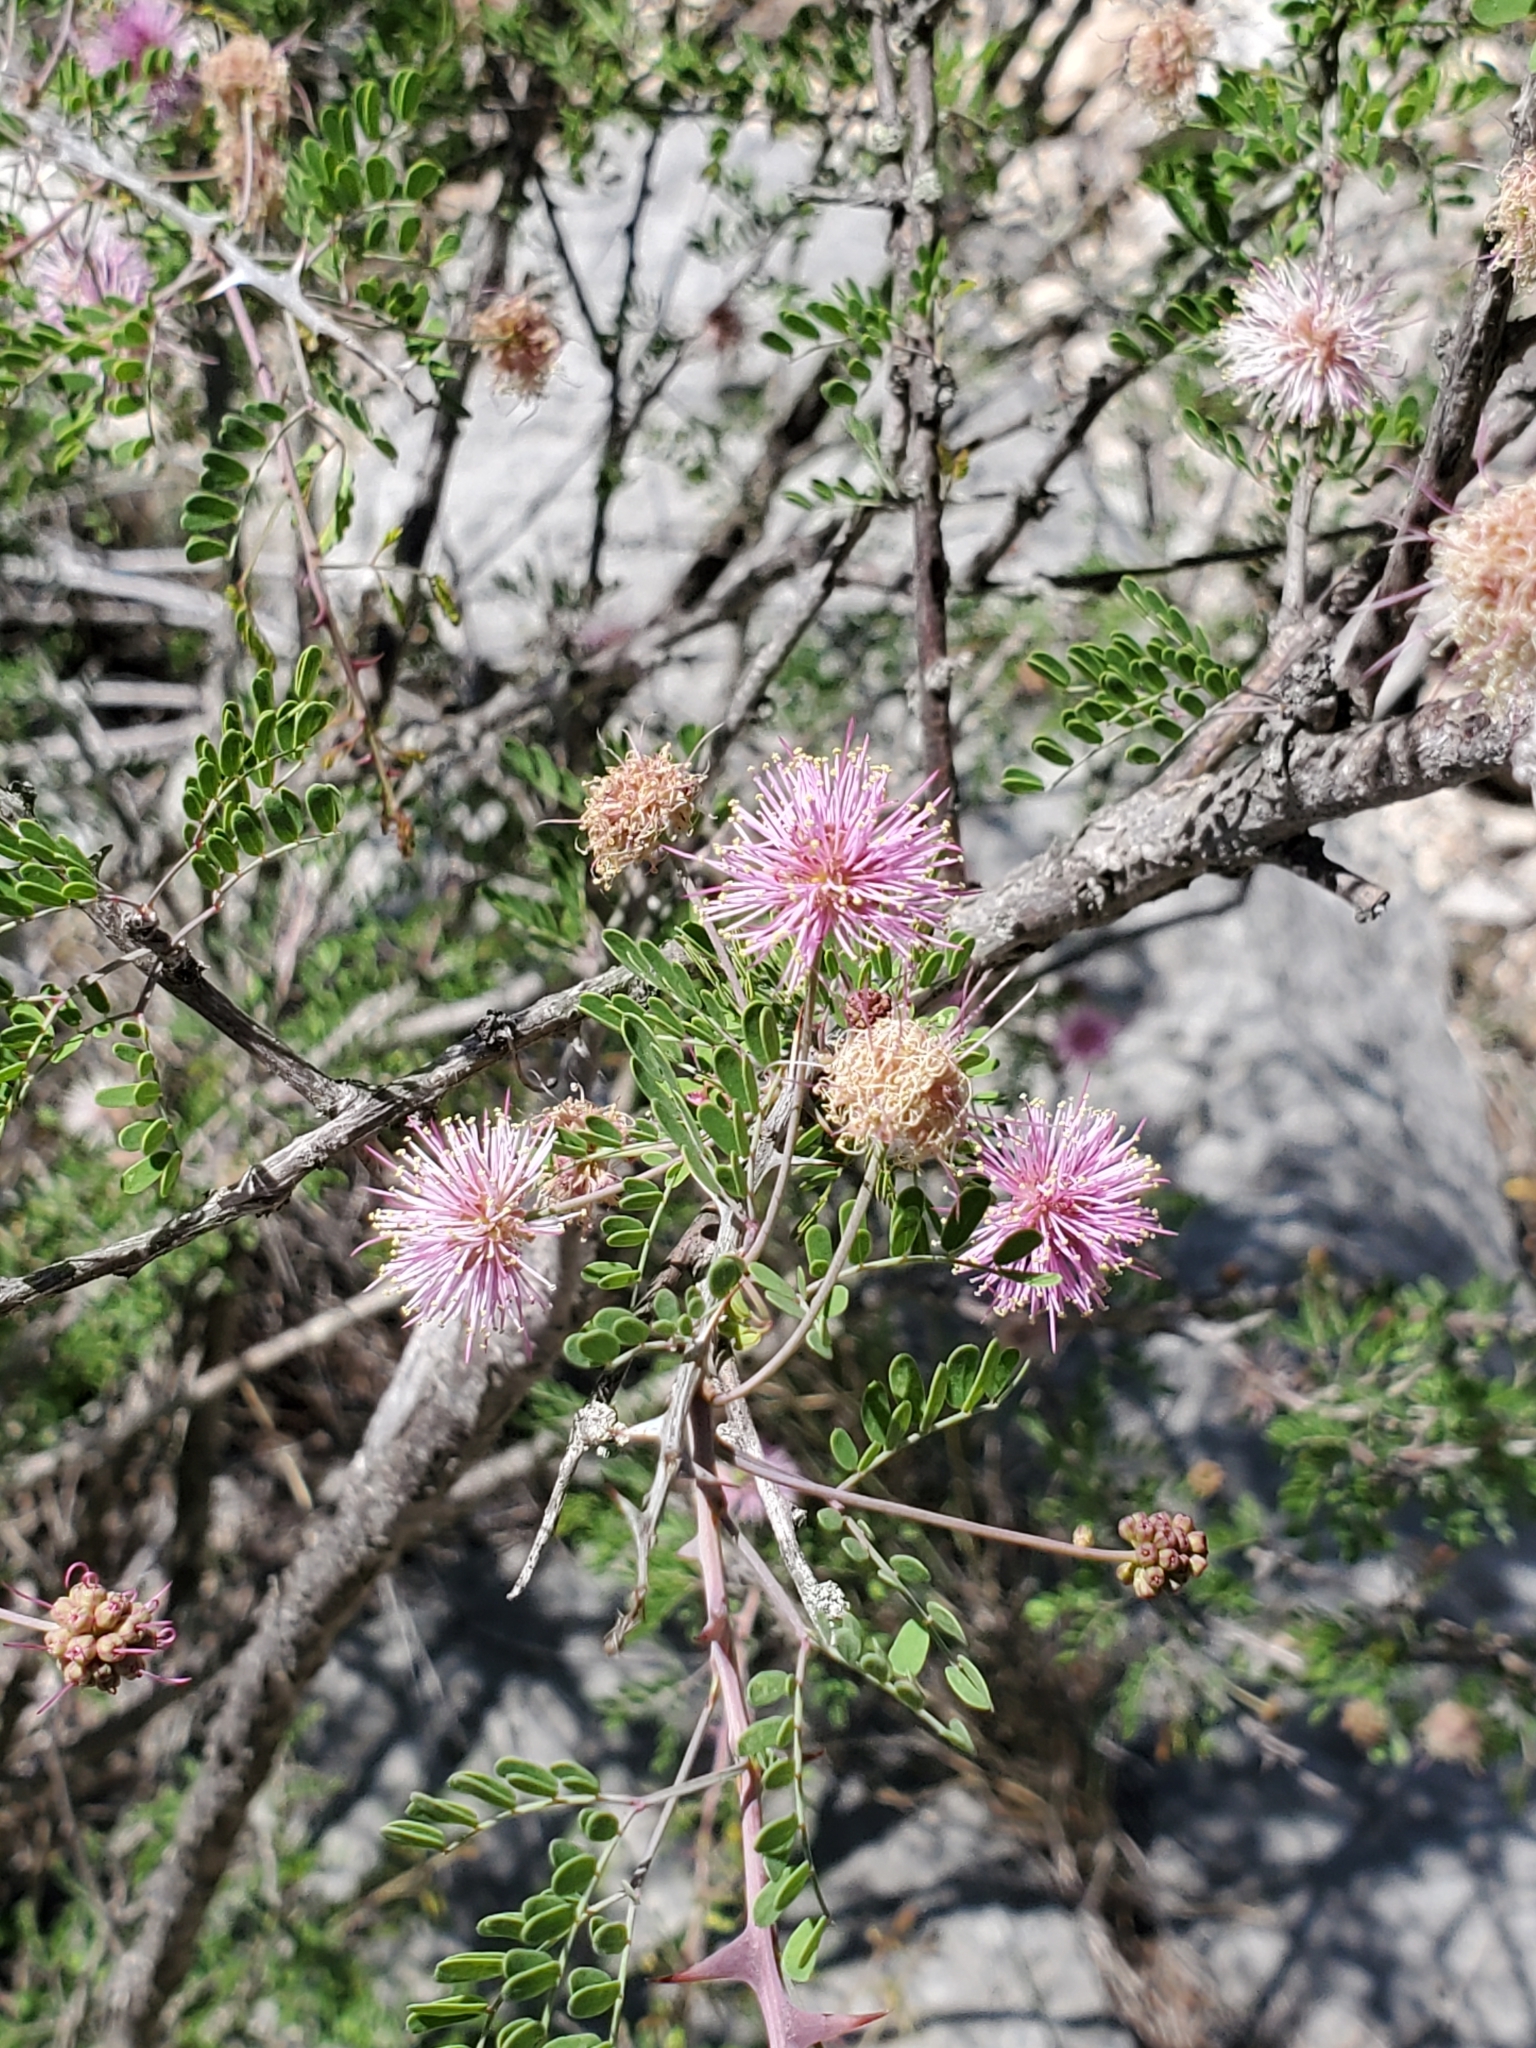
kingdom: Plantae
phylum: Tracheophyta
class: Magnoliopsida
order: Fabales
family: Fabaceae
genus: Mimosa
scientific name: Mimosa borealis
